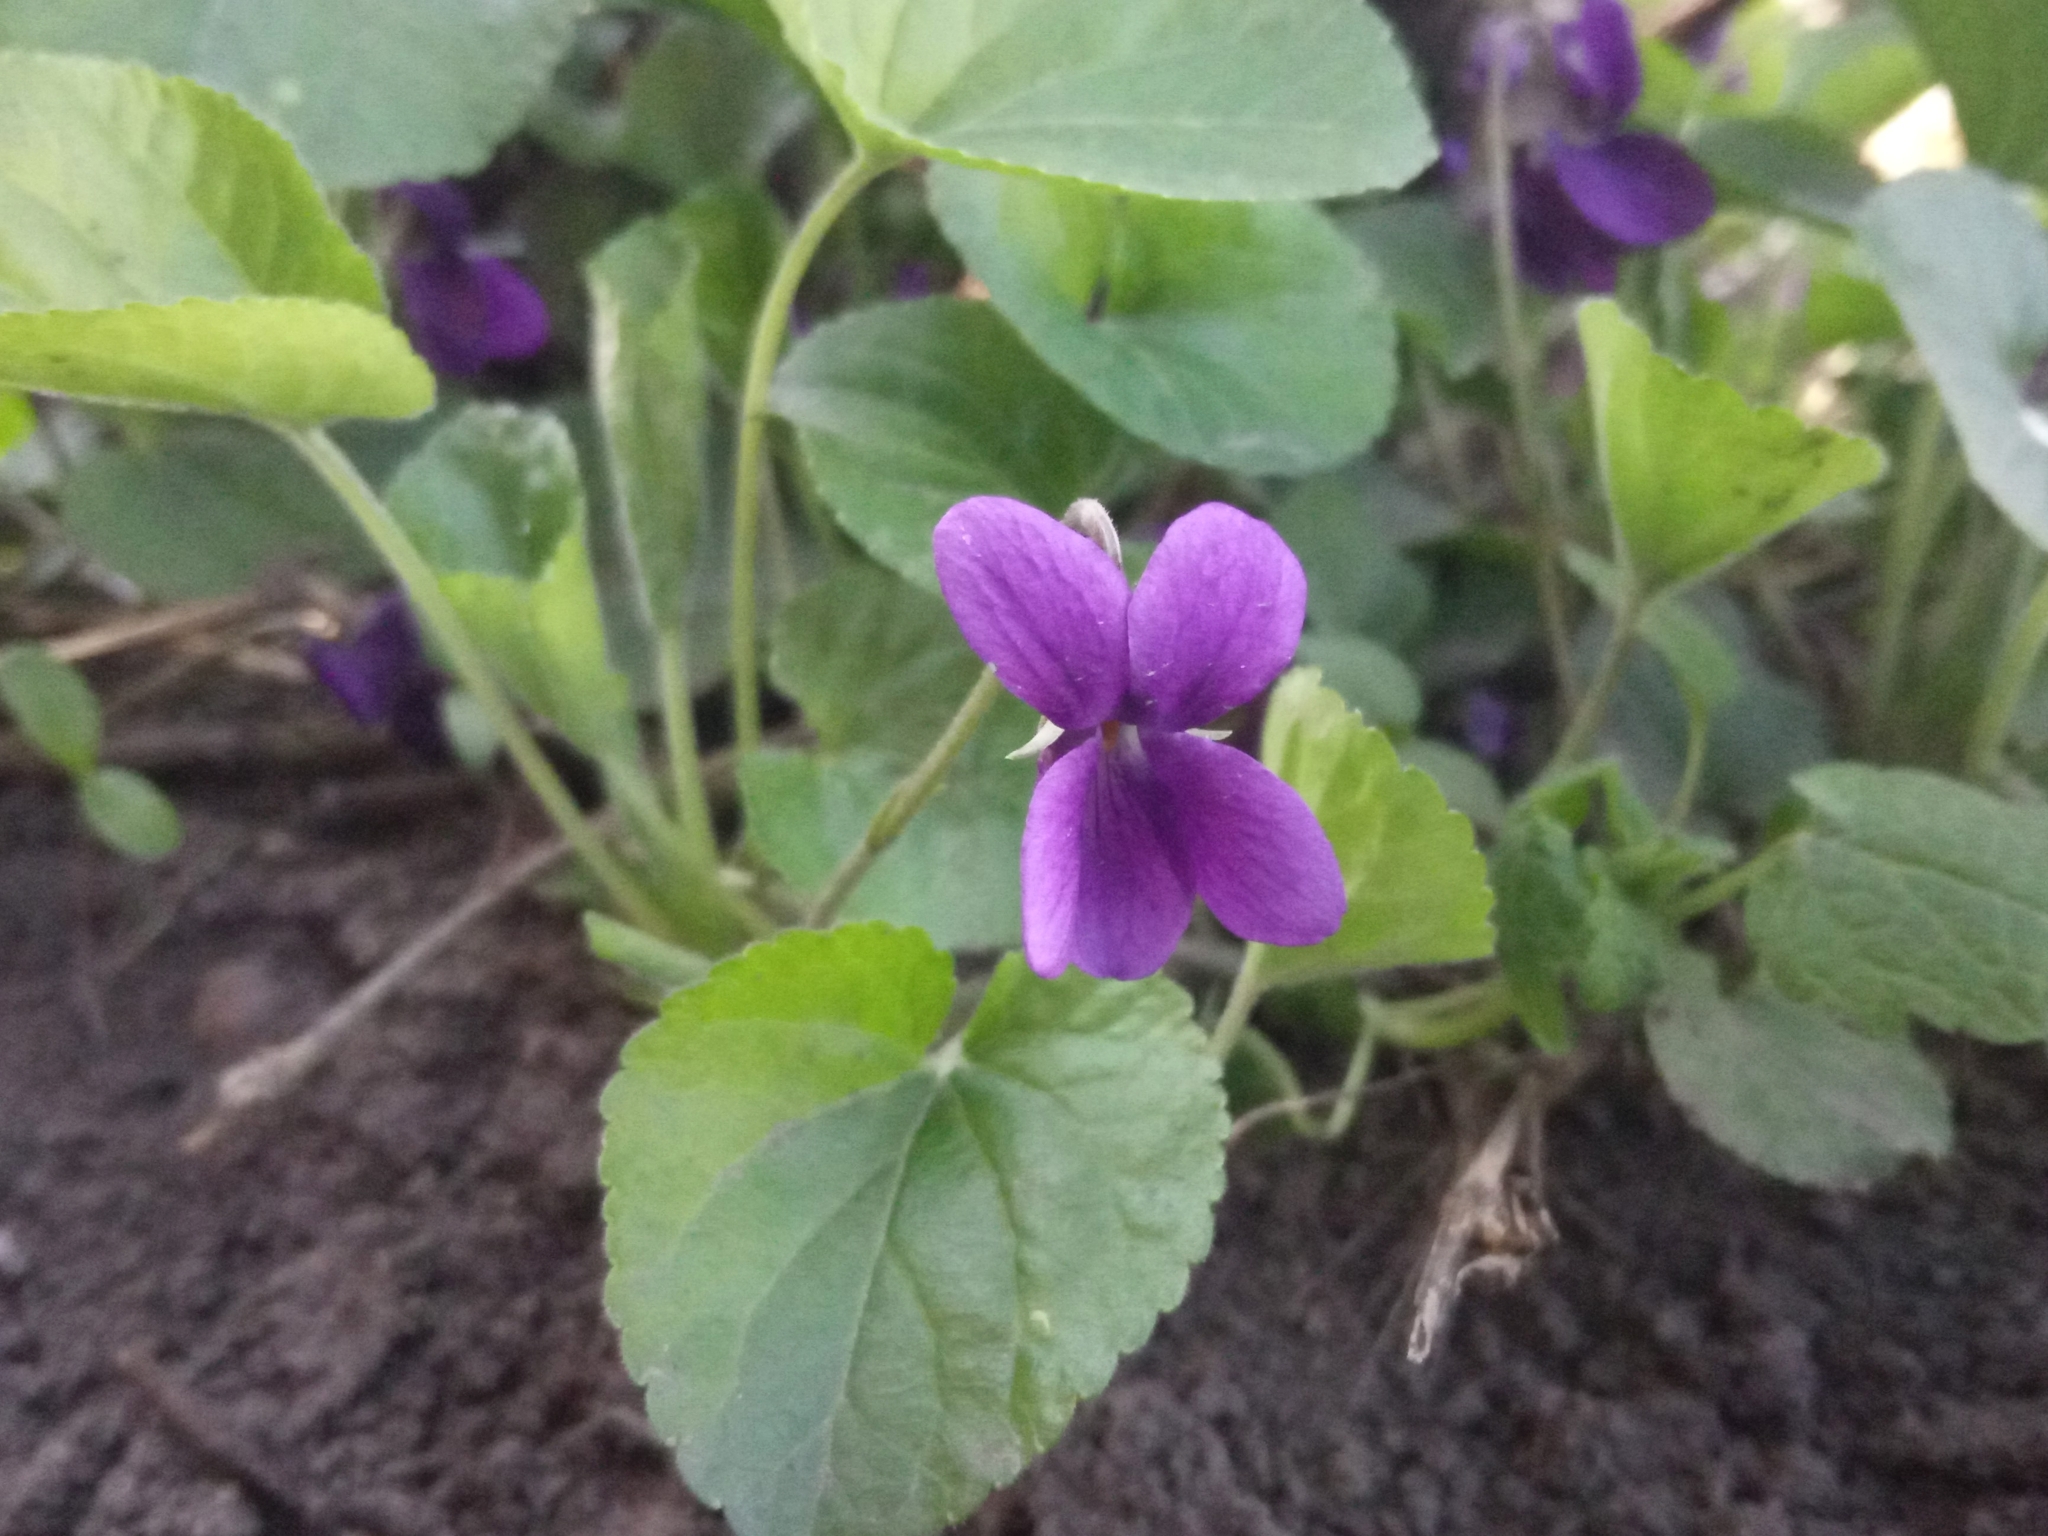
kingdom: Plantae
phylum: Tracheophyta
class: Magnoliopsida
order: Malpighiales
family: Violaceae
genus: Viola
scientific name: Viola odorata
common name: Sweet violet
